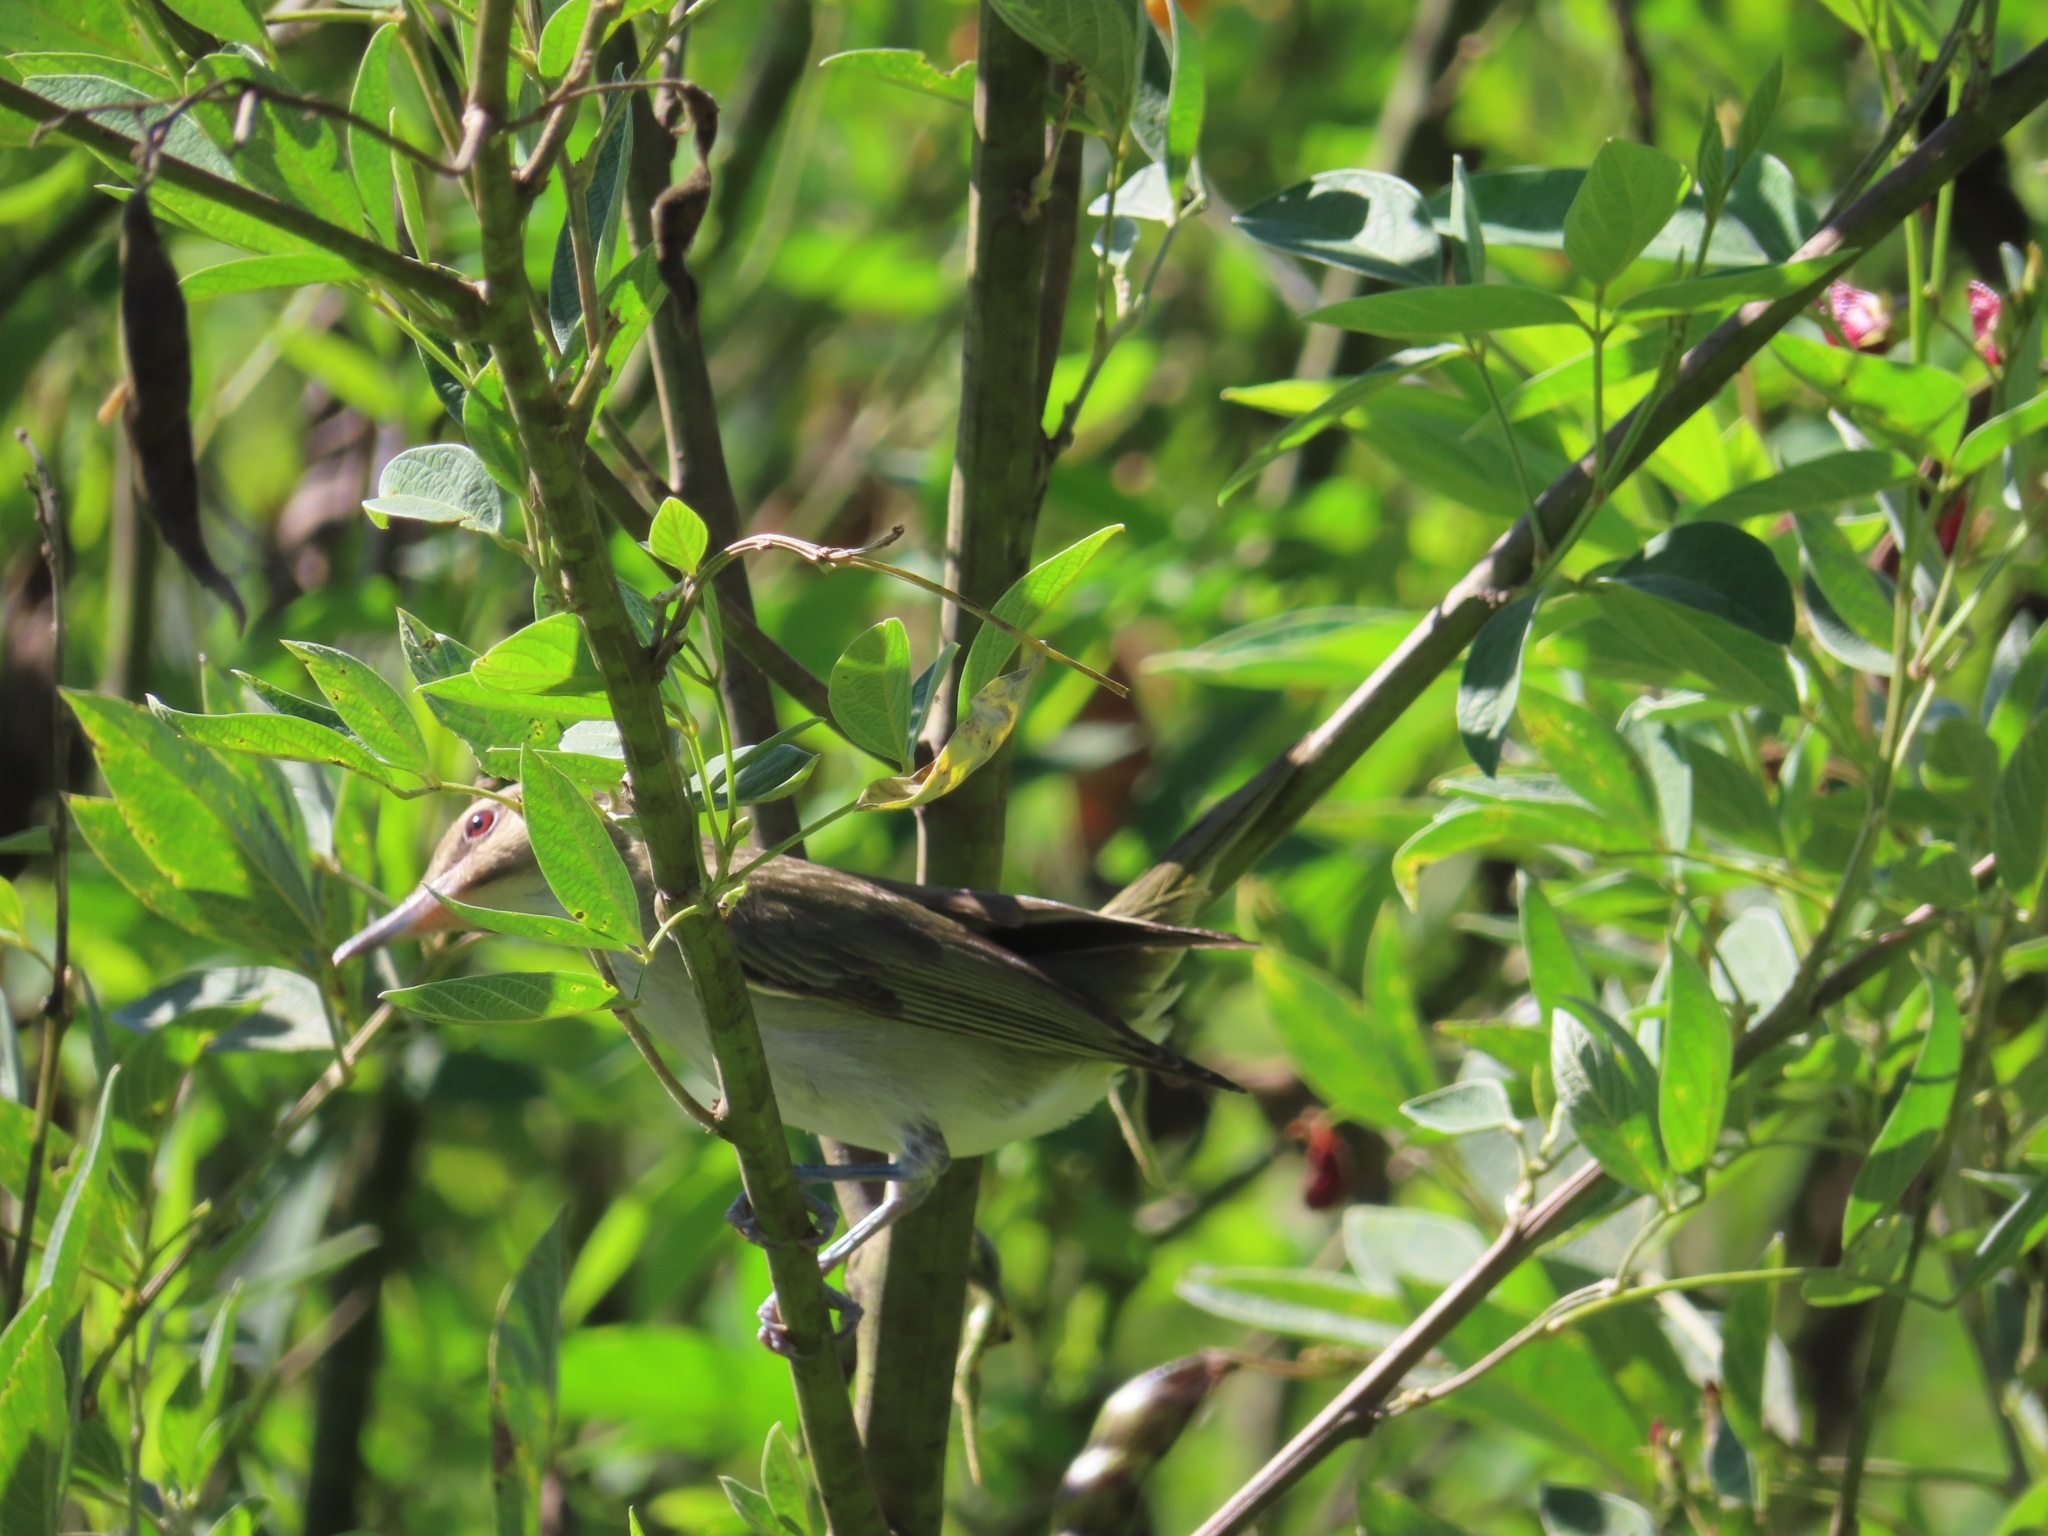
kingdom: Animalia
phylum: Chordata
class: Aves
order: Passeriformes
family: Vireonidae
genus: Vireo
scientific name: Vireo altiloquus
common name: Black-whiskered vireo
